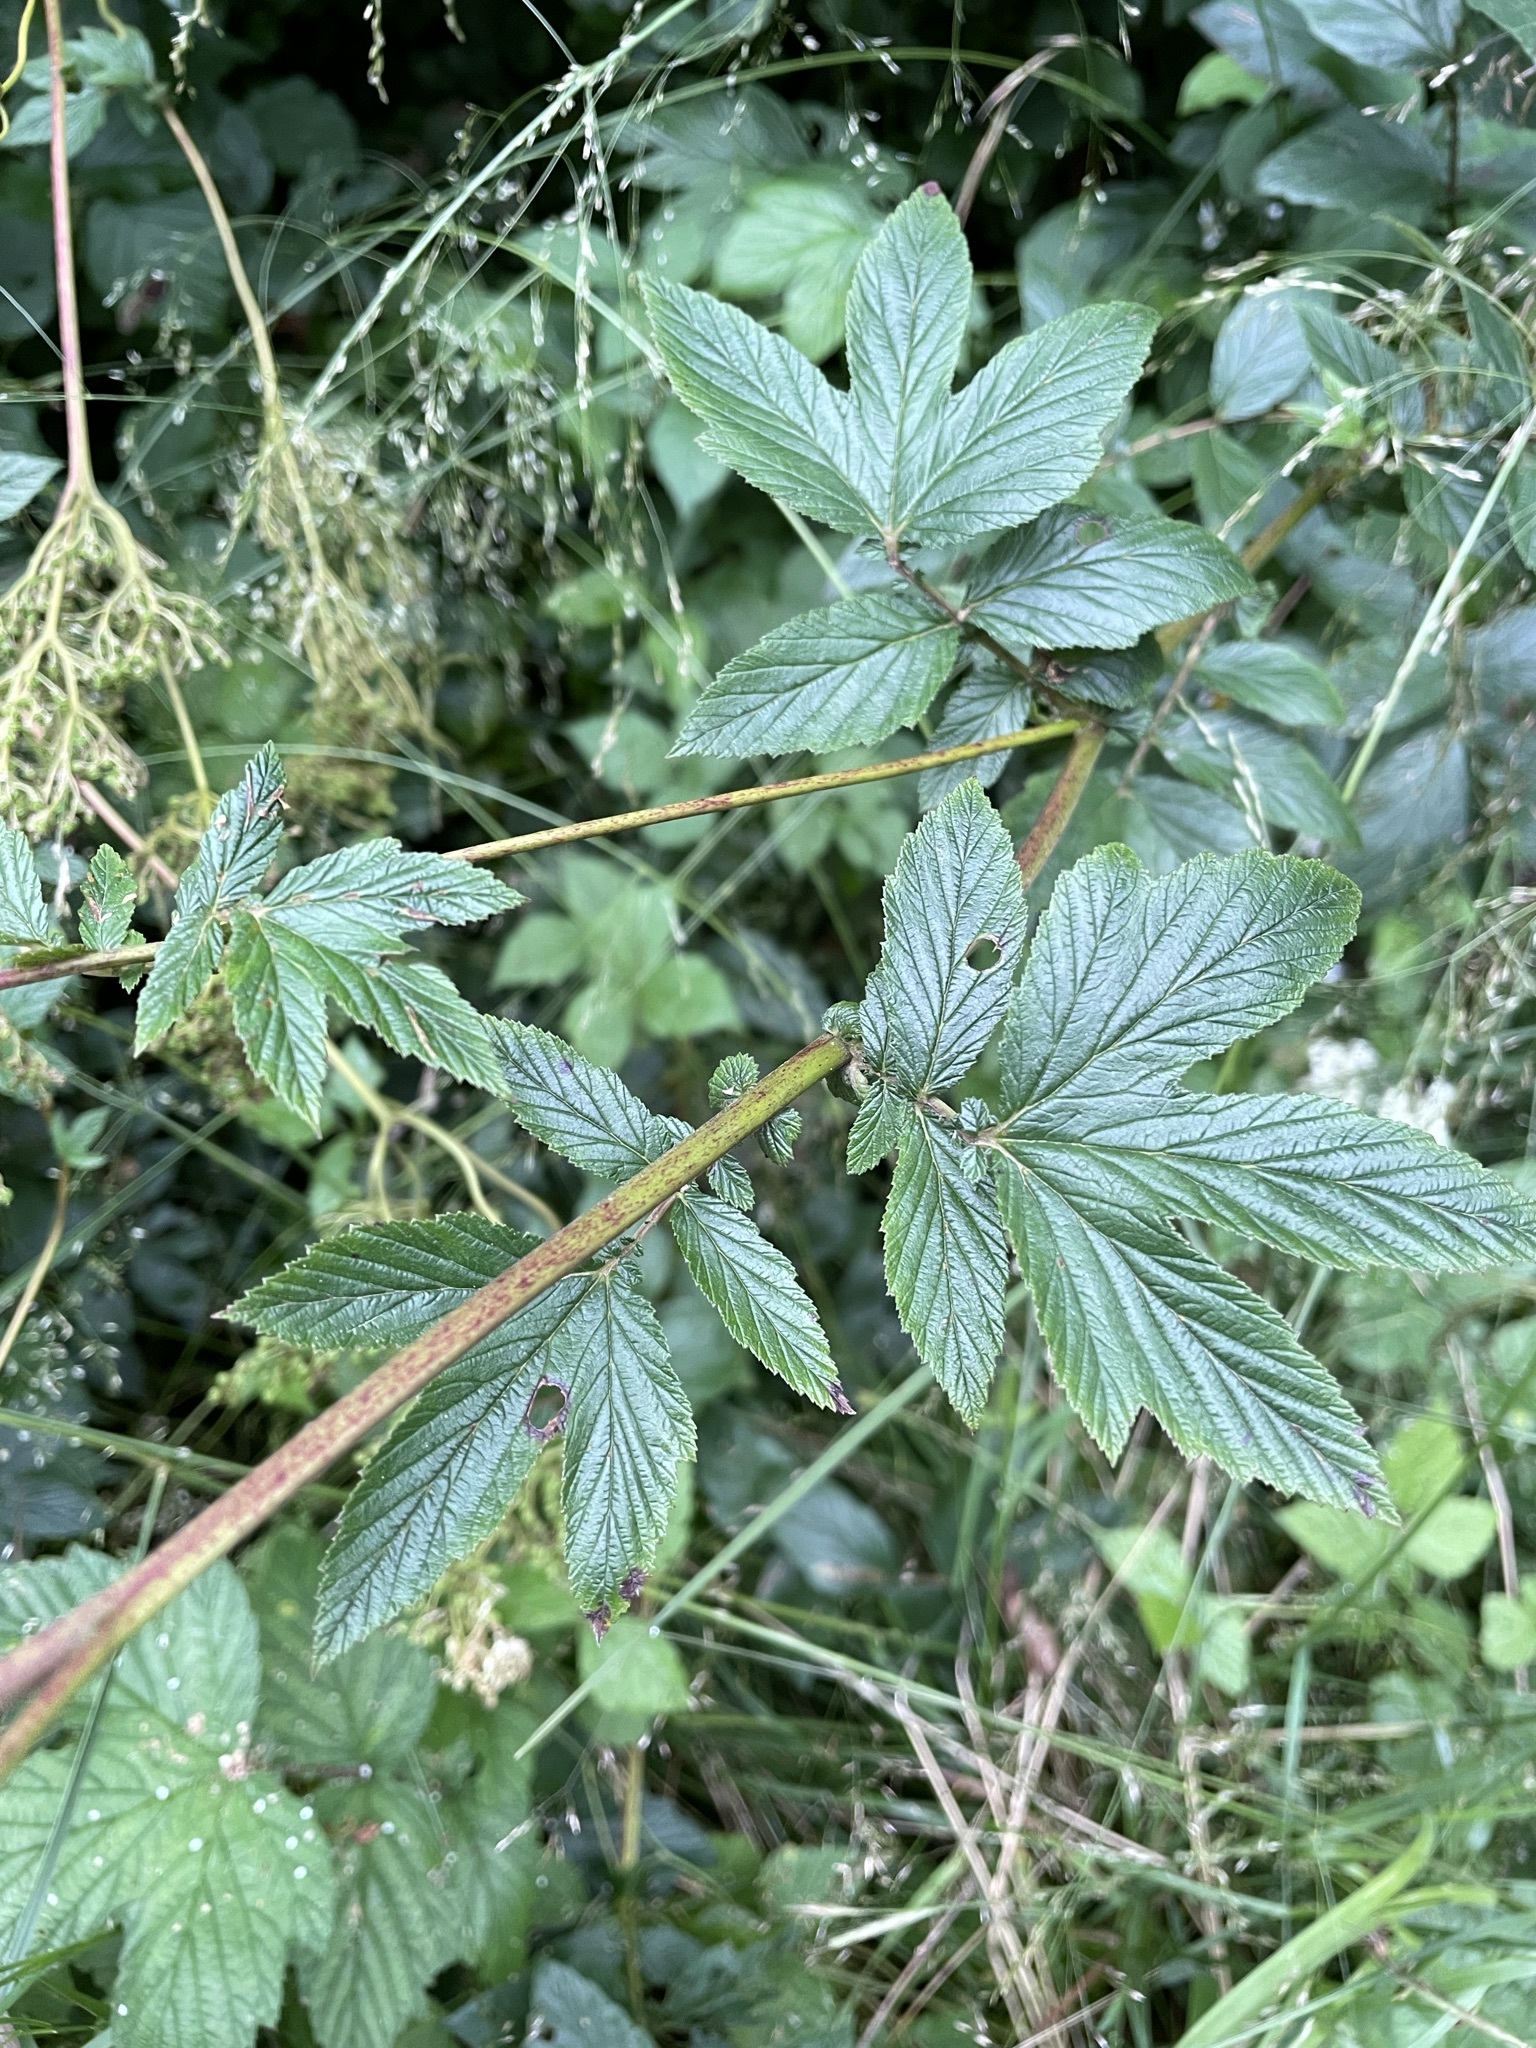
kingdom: Plantae
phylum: Tracheophyta
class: Magnoliopsida
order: Rosales
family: Rosaceae
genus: Filipendula
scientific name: Filipendula ulmaria
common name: Meadowsweet
